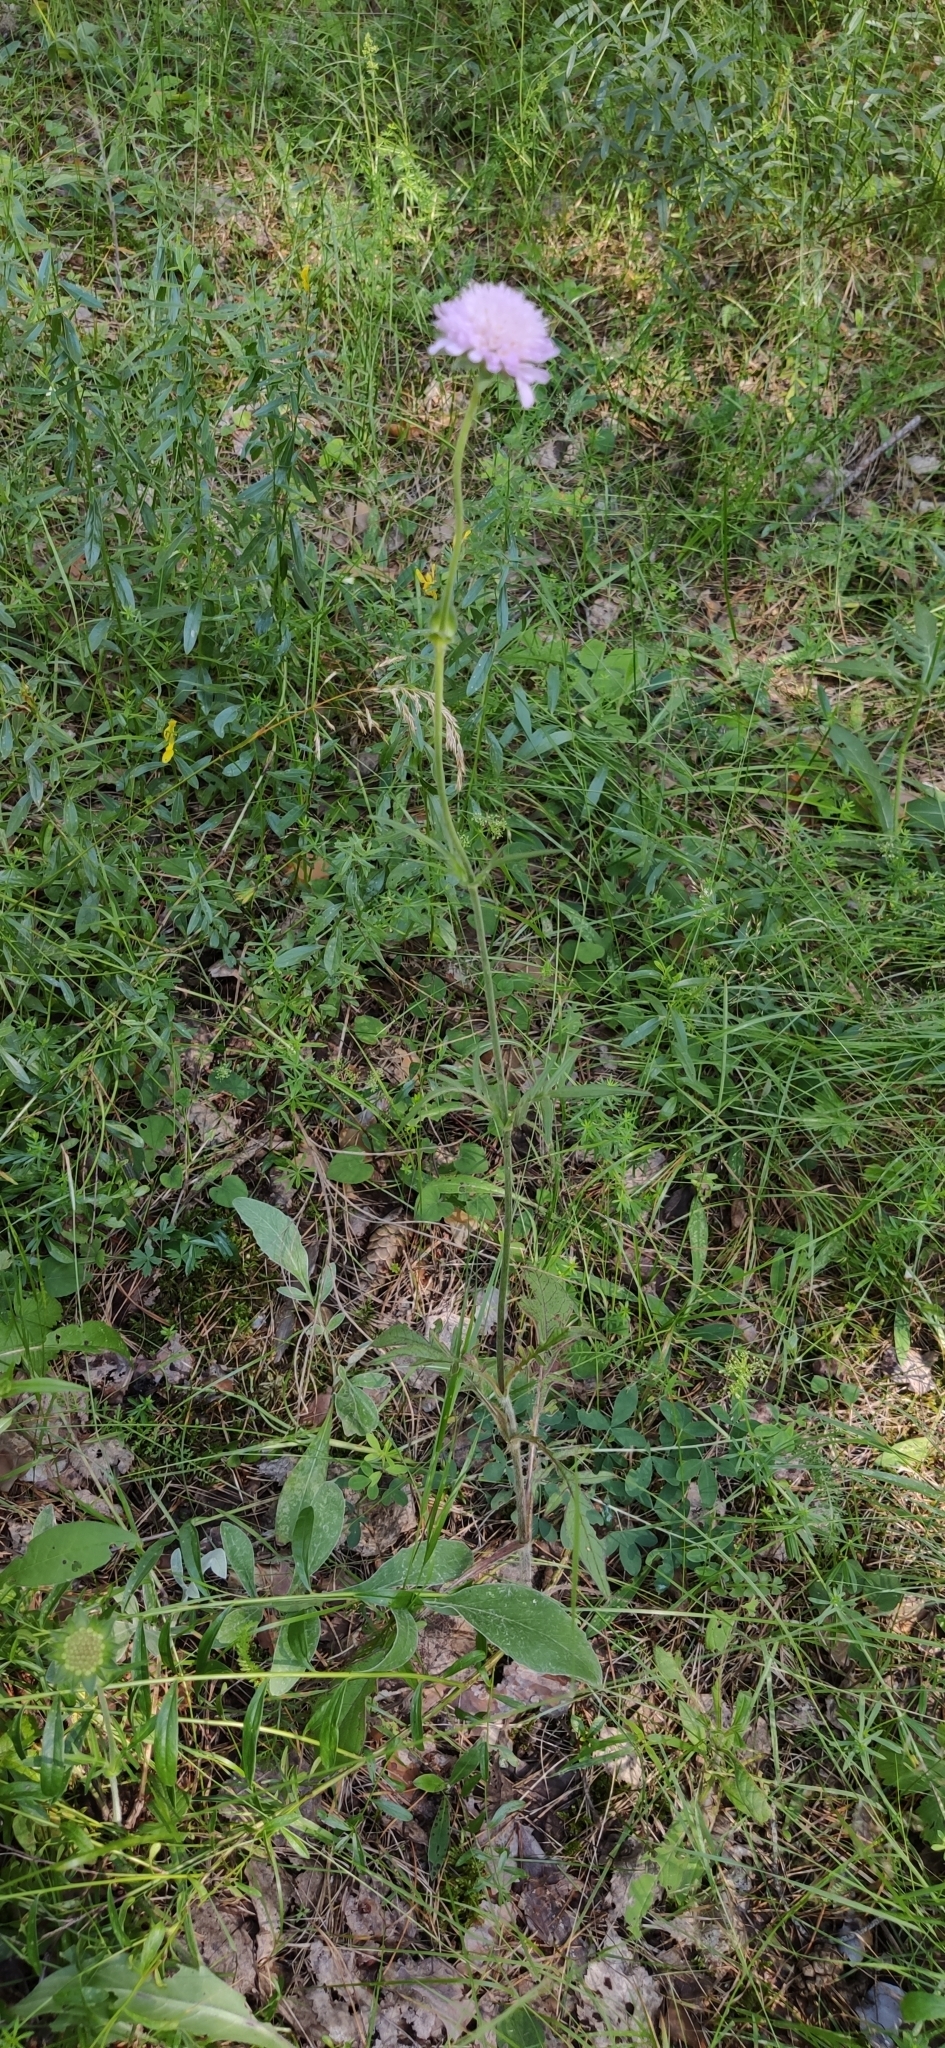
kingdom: Plantae
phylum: Tracheophyta
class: Magnoliopsida
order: Dipsacales
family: Caprifoliaceae
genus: Knautia
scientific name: Knautia arvensis
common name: Field scabiosa
